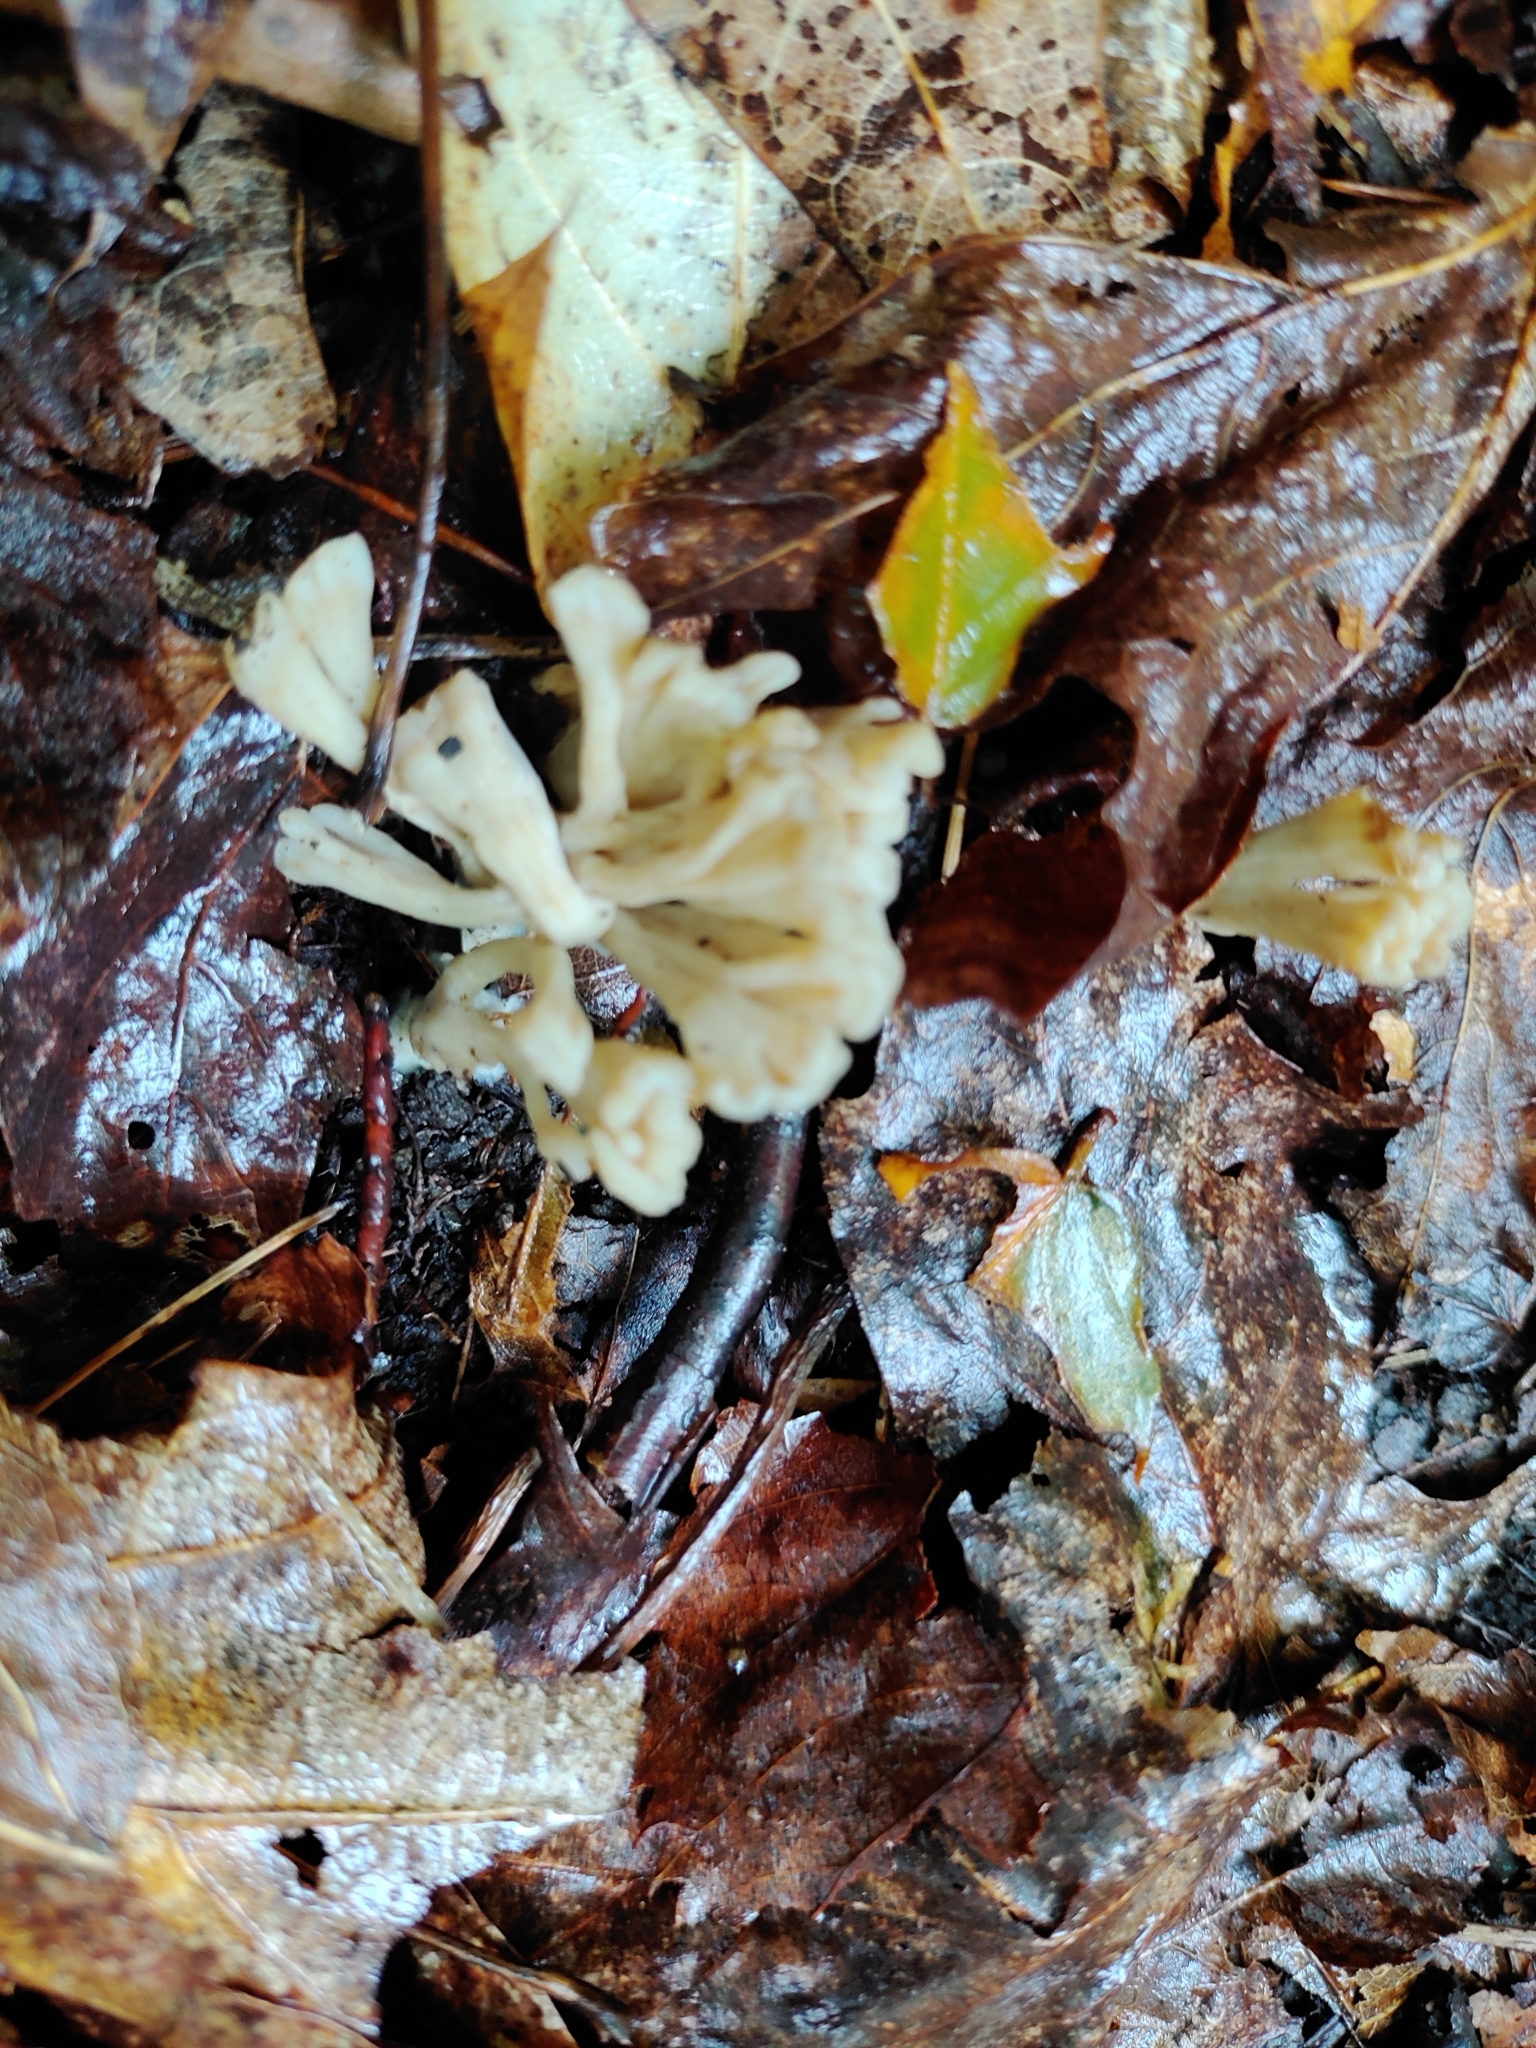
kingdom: Fungi
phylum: Basidiomycota
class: Agaricomycetes
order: Sebacinales
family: Sebacinaceae
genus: Sebacina
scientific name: Sebacina schweinitzii
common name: Jellied false coral fungus
